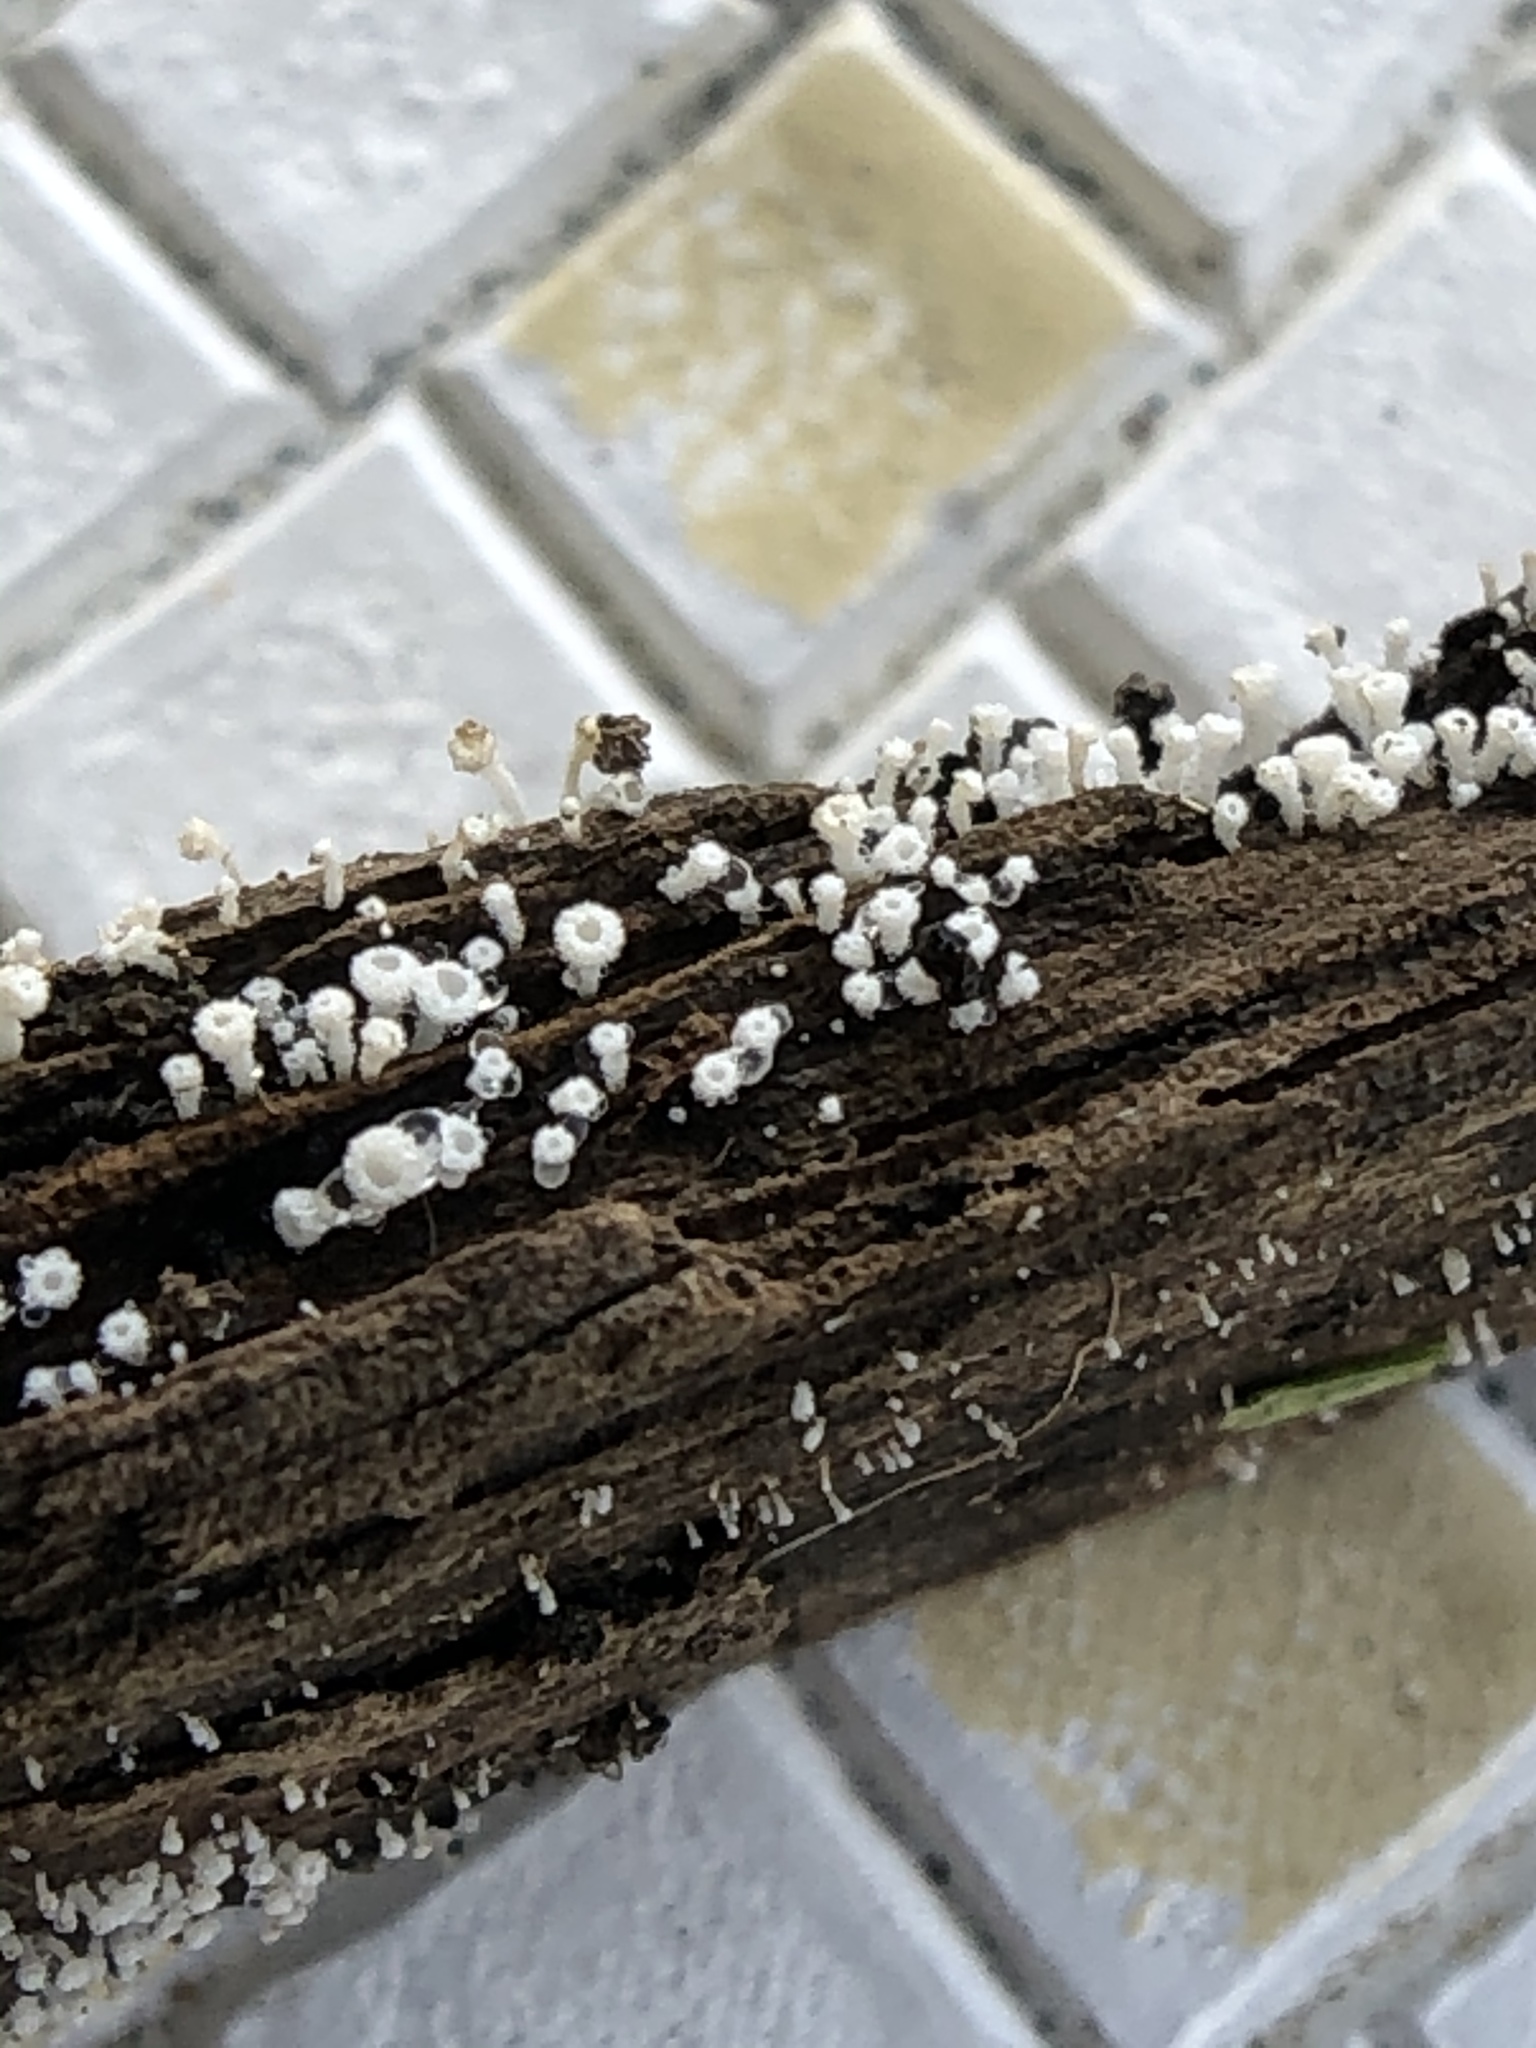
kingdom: Fungi
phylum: Ascomycota
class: Leotiomycetes
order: Helotiales
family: Lachnaceae
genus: Lachnum
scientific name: Lachnum virgineum
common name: Snowy disco
